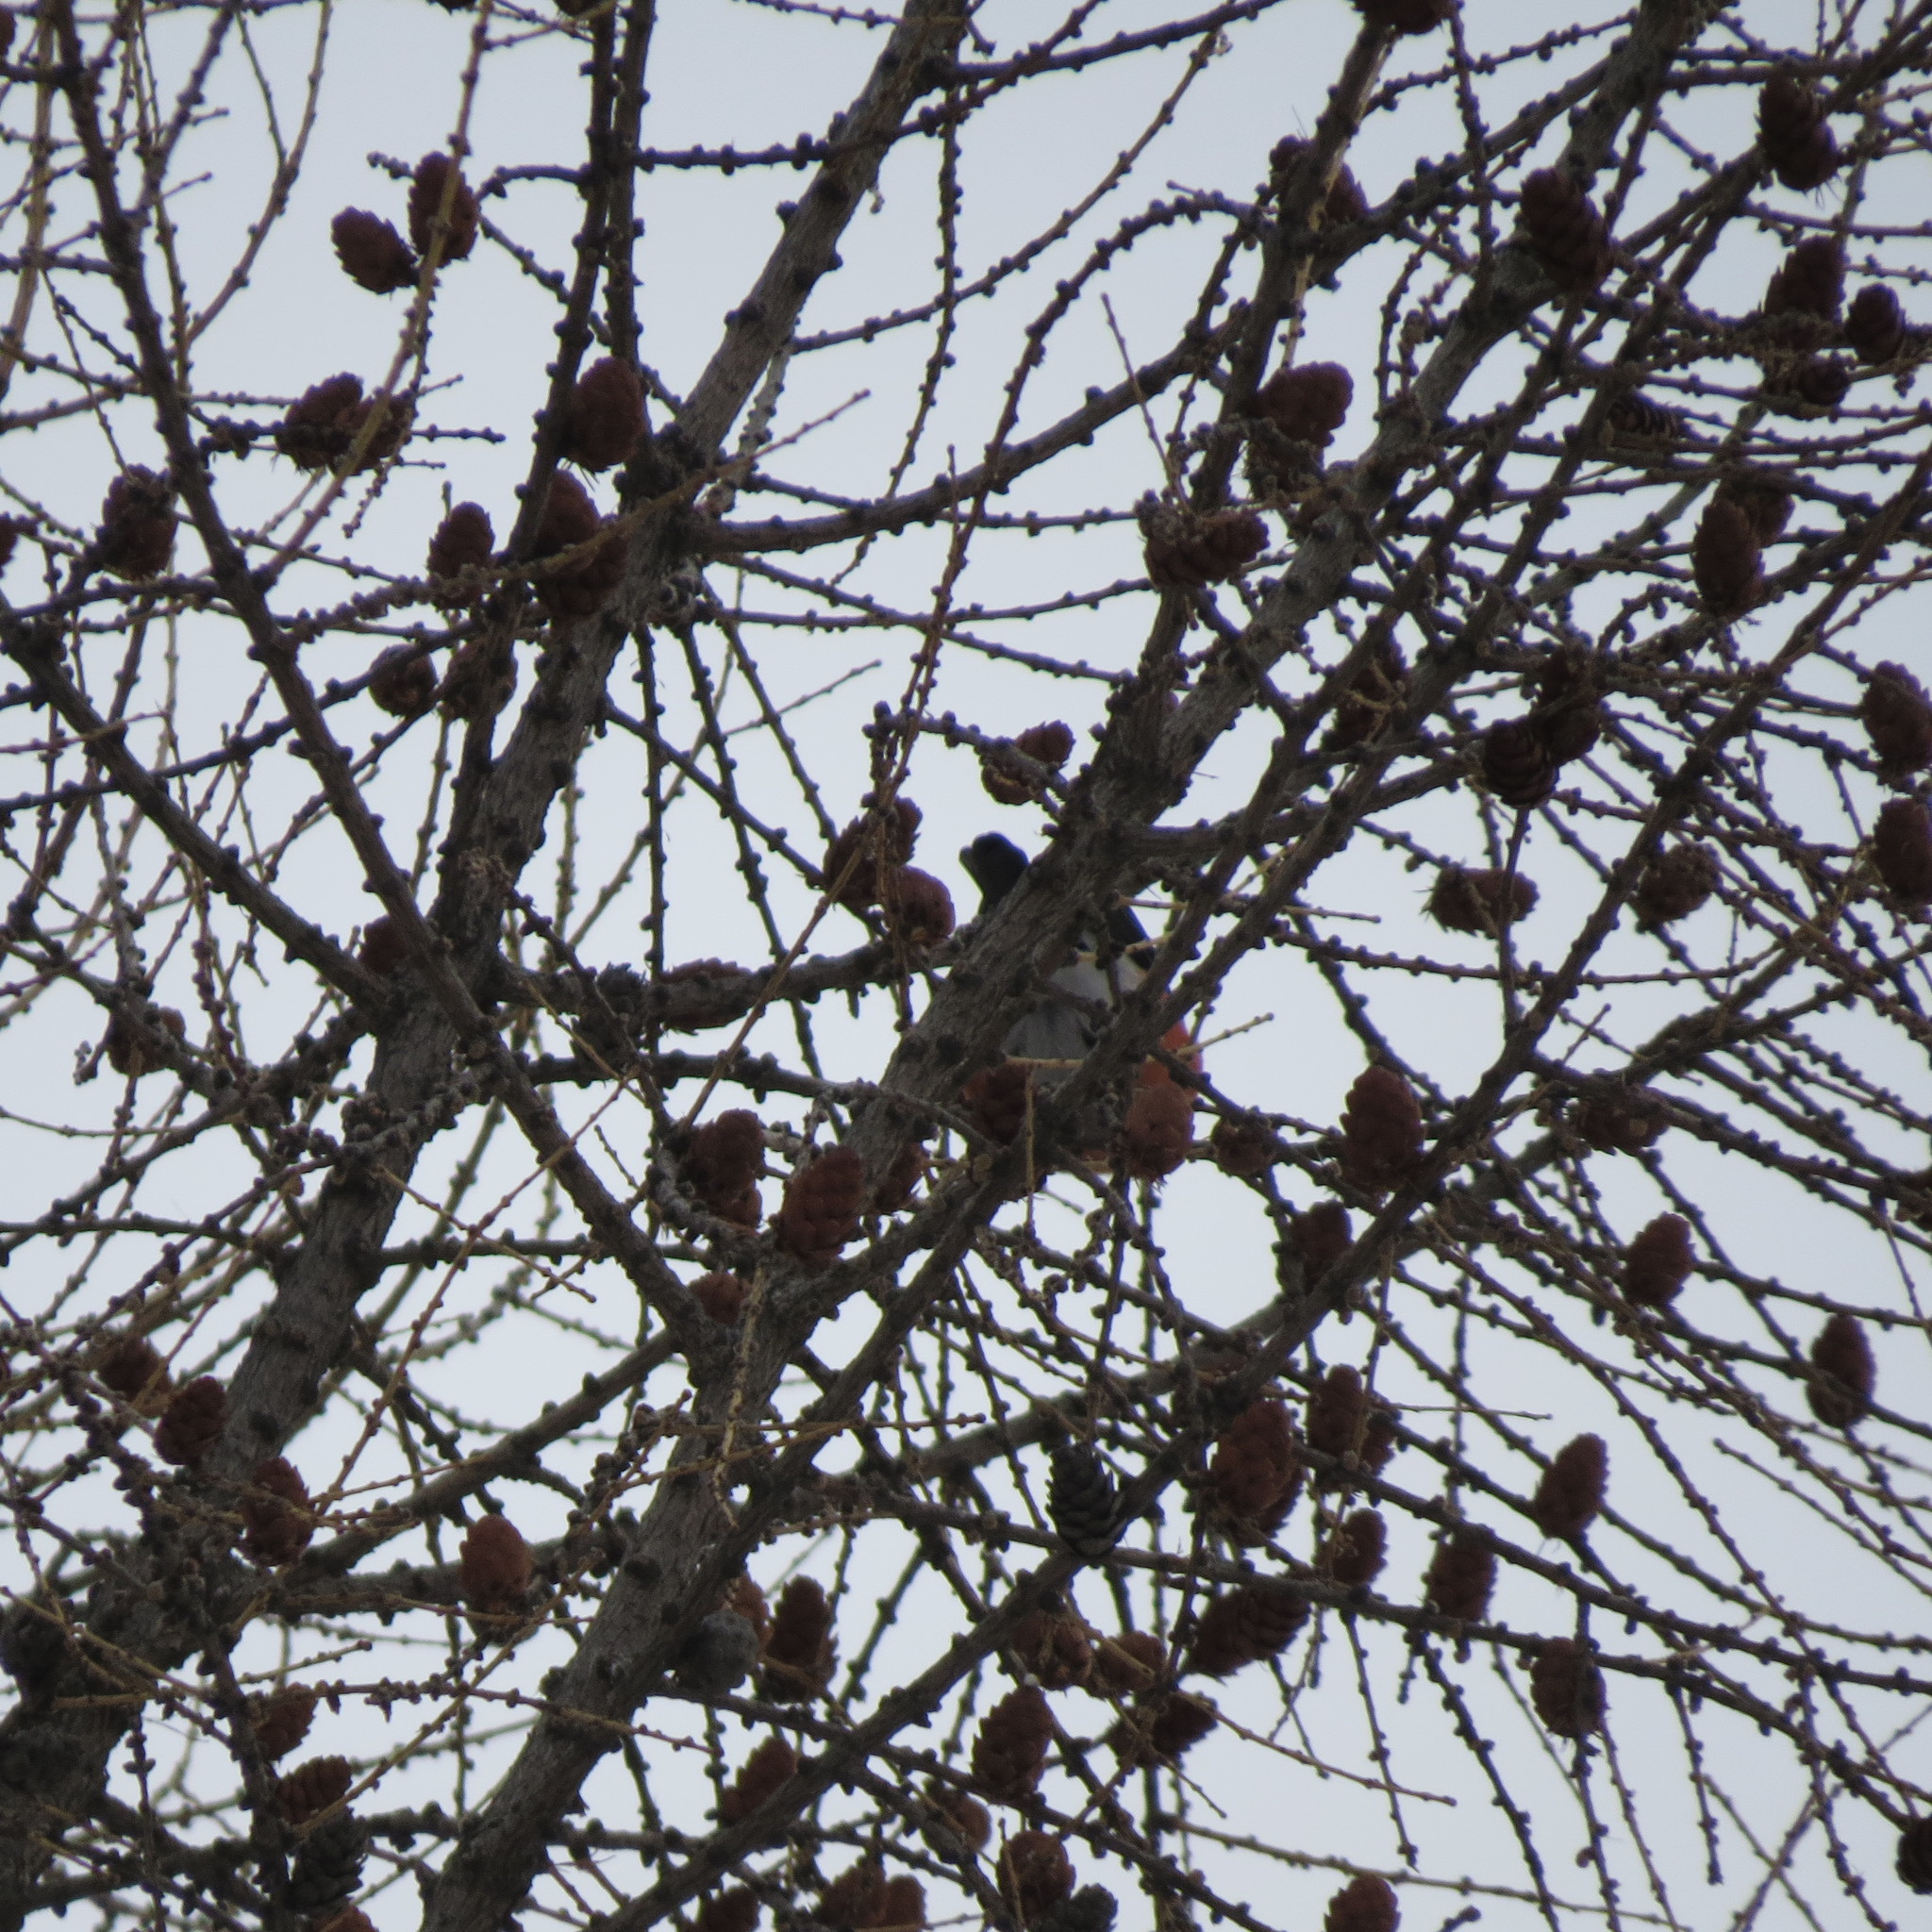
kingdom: Animalia
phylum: Chordata
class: Aves
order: Passeriformes
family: Fringillidae
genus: Pyrrhula
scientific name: Pyrrhula pyrrhula
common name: Eurasian bullfinch
